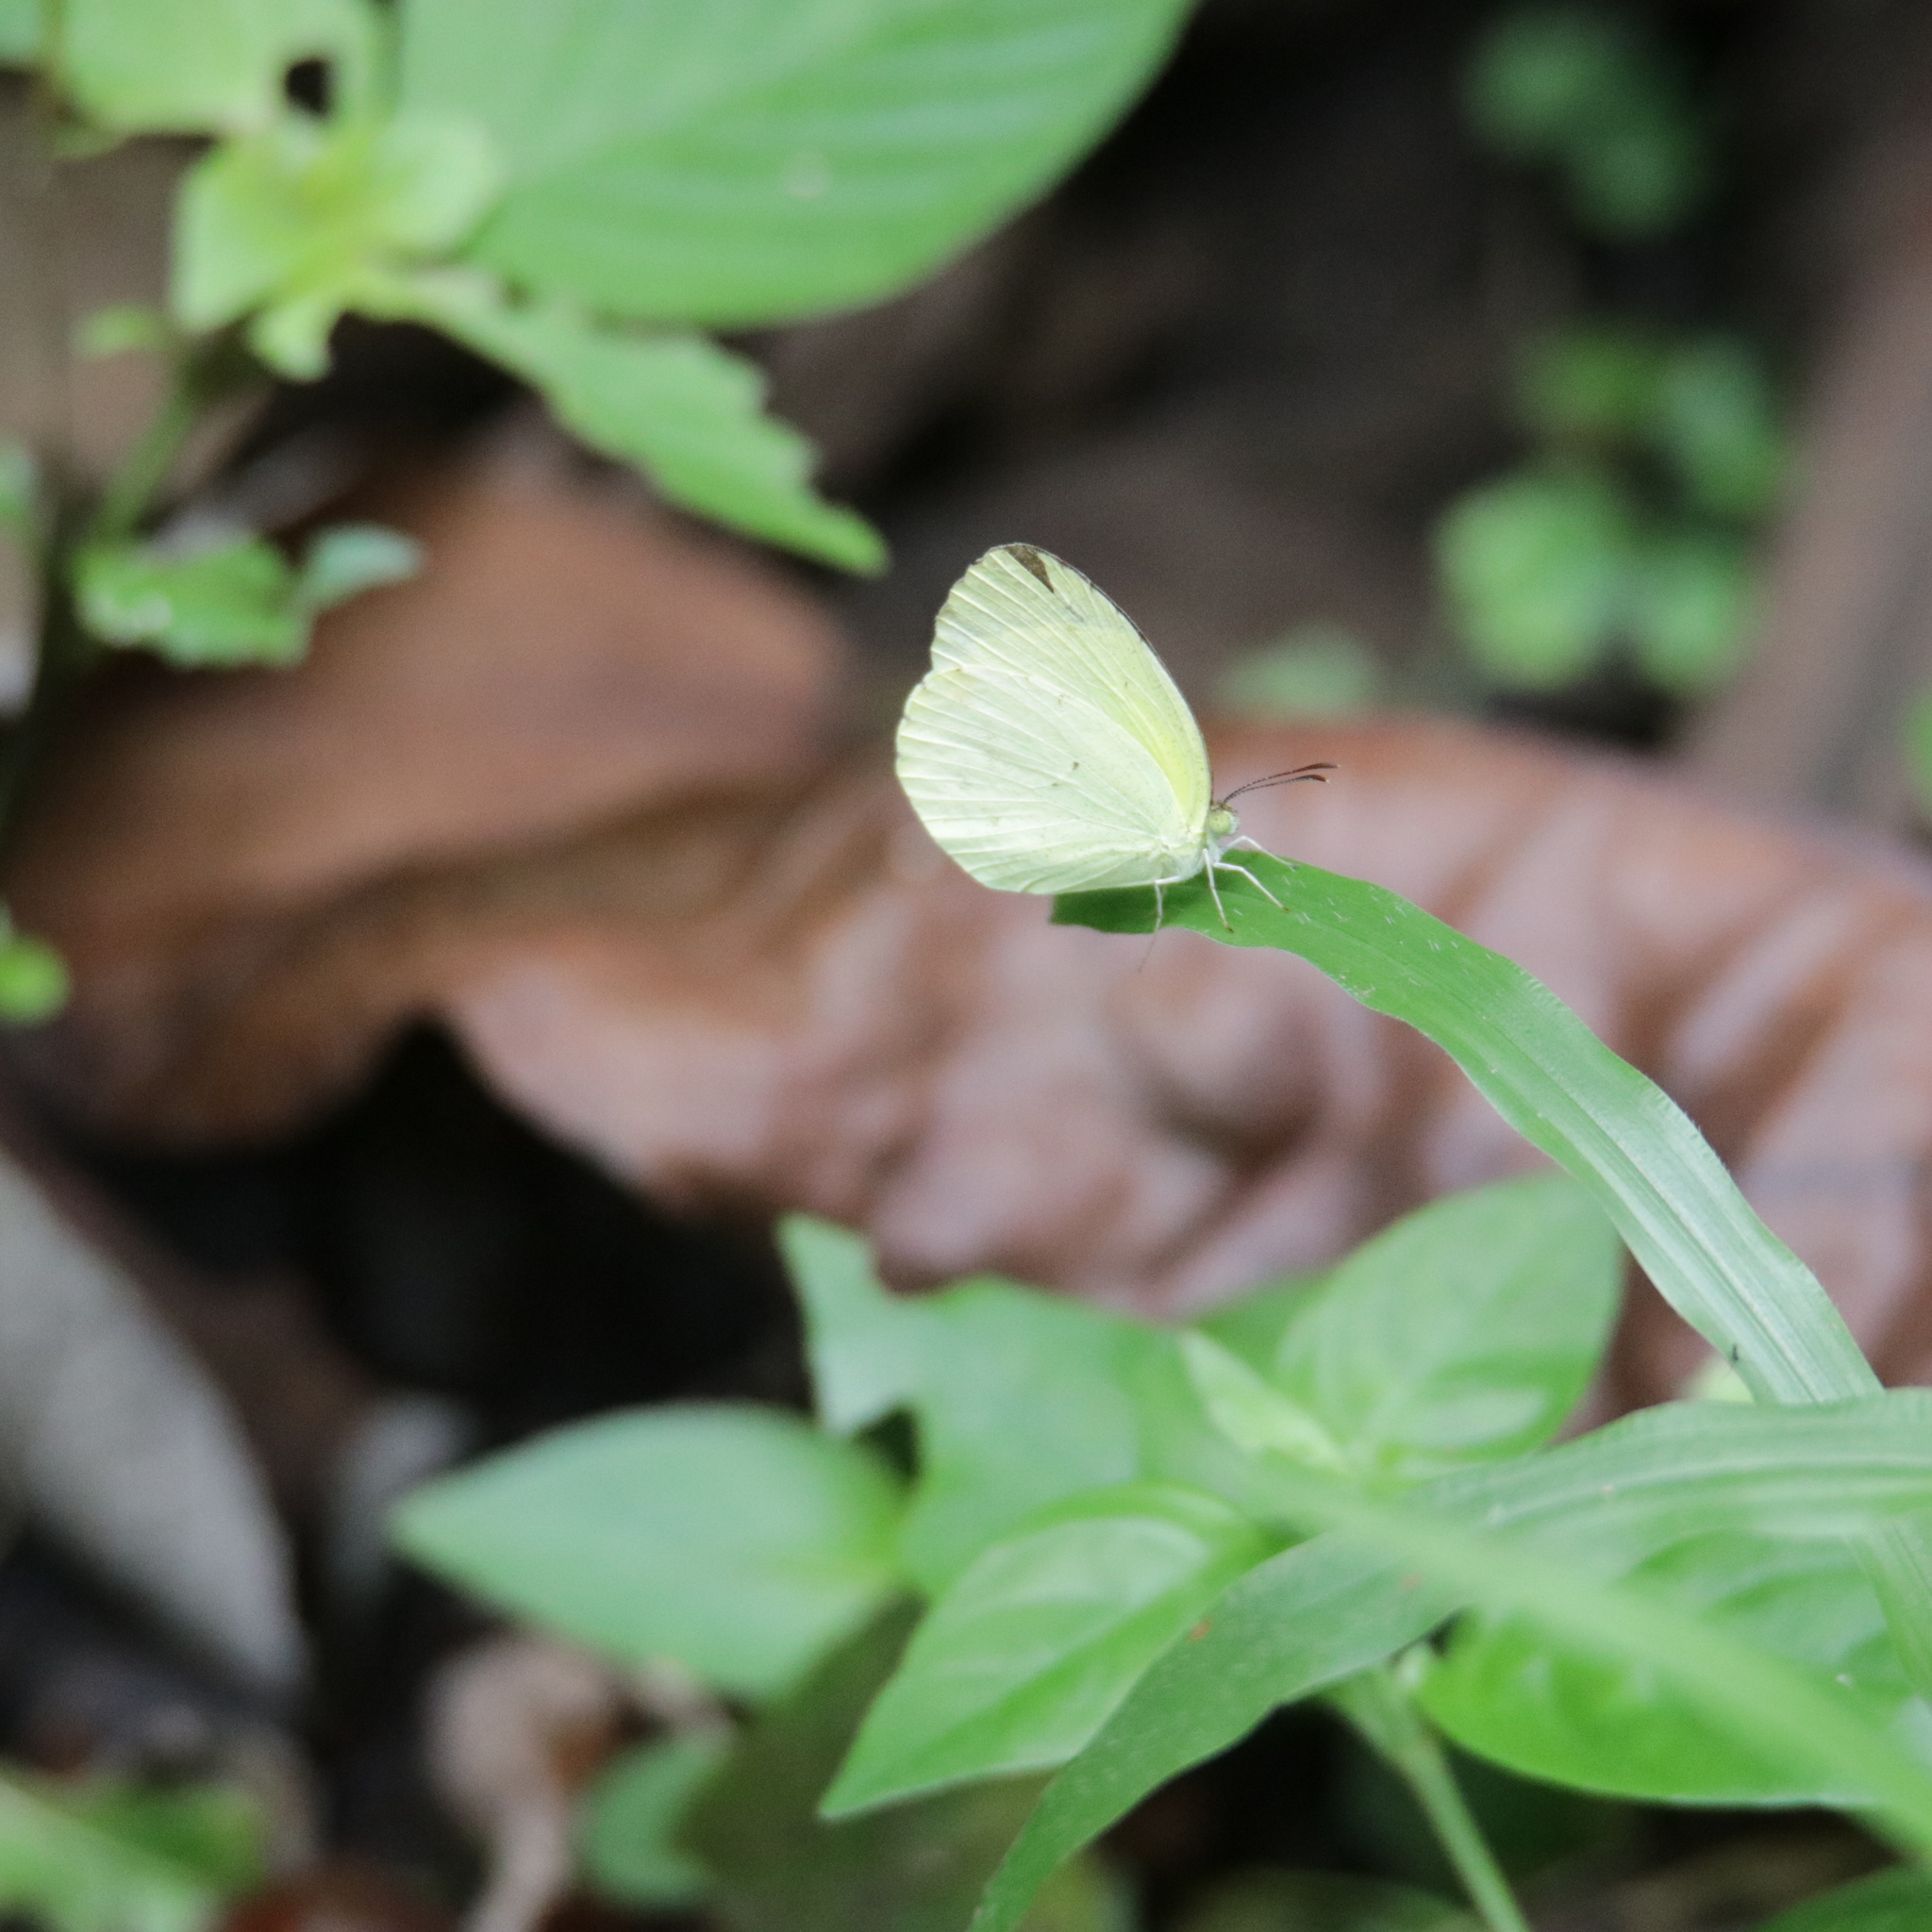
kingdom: Animalia
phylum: Arthropoda
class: Insecta
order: Lepidoptera
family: Pieridae
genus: Ascia
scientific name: Ascia monuste
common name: Great southern white
